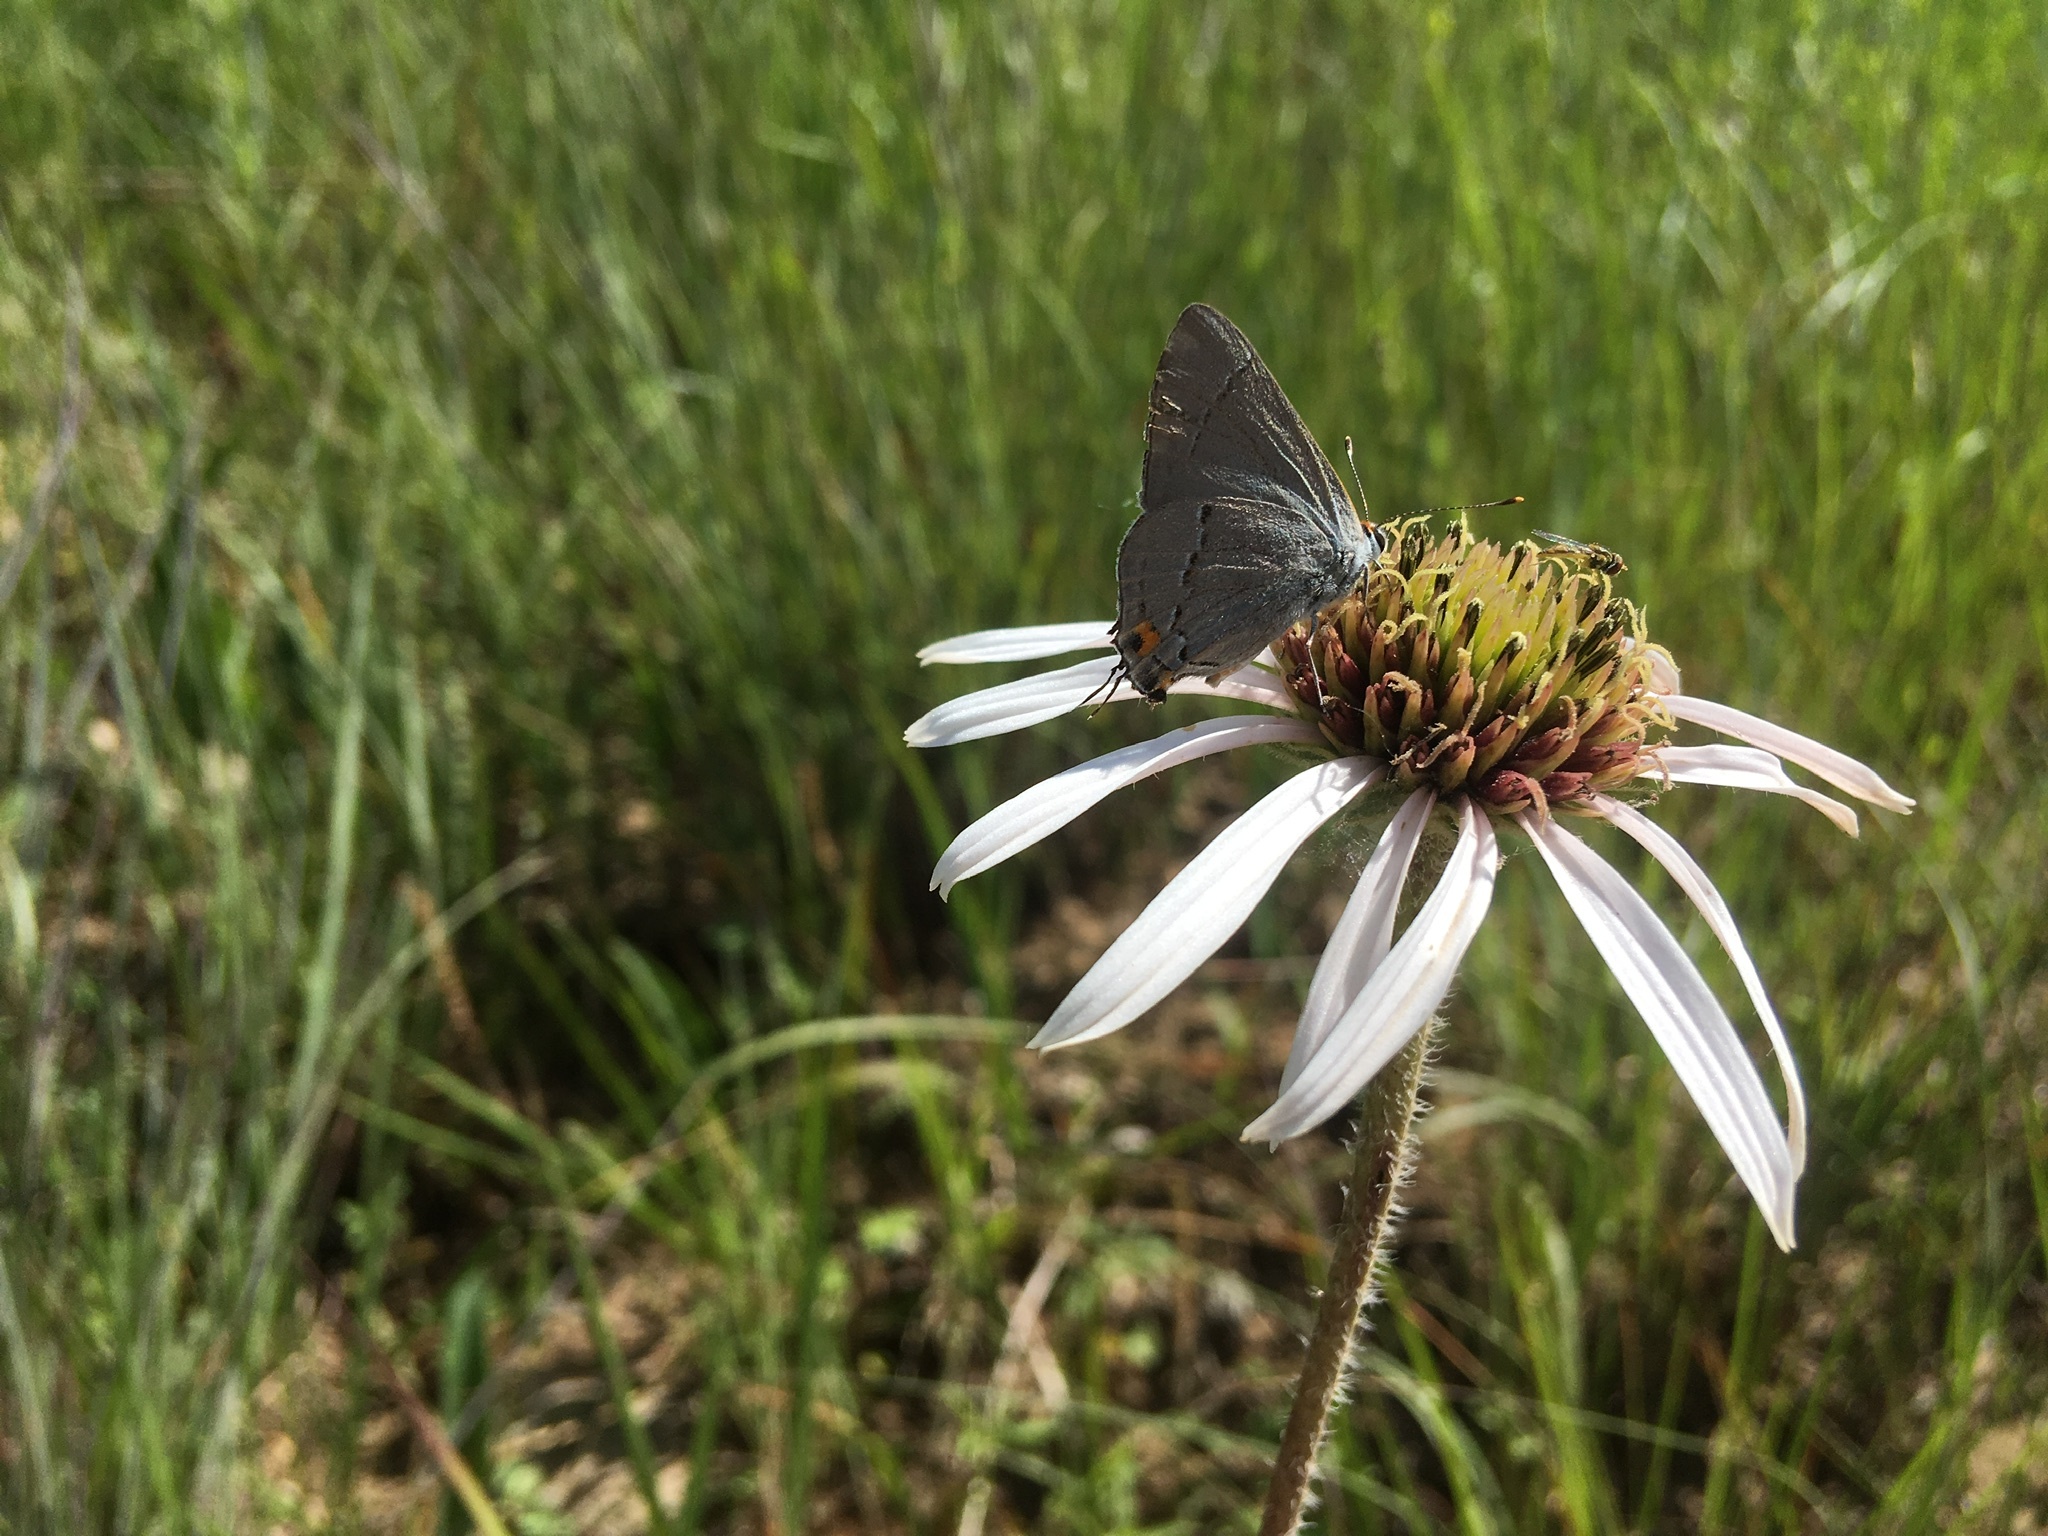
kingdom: Animalia
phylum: Arthropoda
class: Insecta
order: Lepidoptera
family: Lycaenidae
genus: Strymon
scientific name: Strymon melinus
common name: Gray hairstreak
